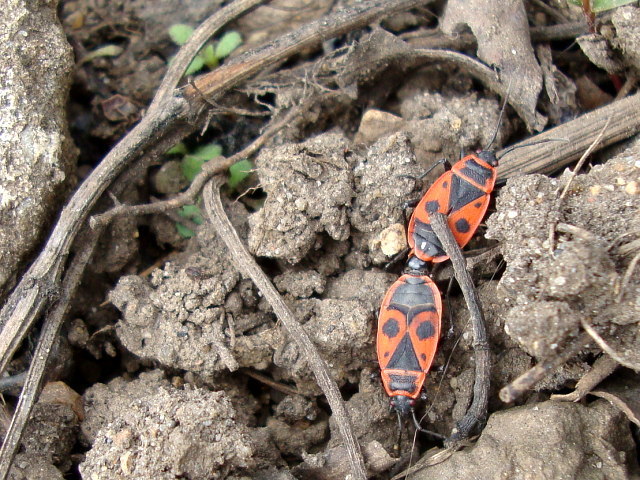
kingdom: Animalia
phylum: Arthropoda
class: Insecta
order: Hemiptera
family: Pyrrhocoridae
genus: Pyrrhocoris
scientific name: Pyrrhocoris apterus
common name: Firebug
